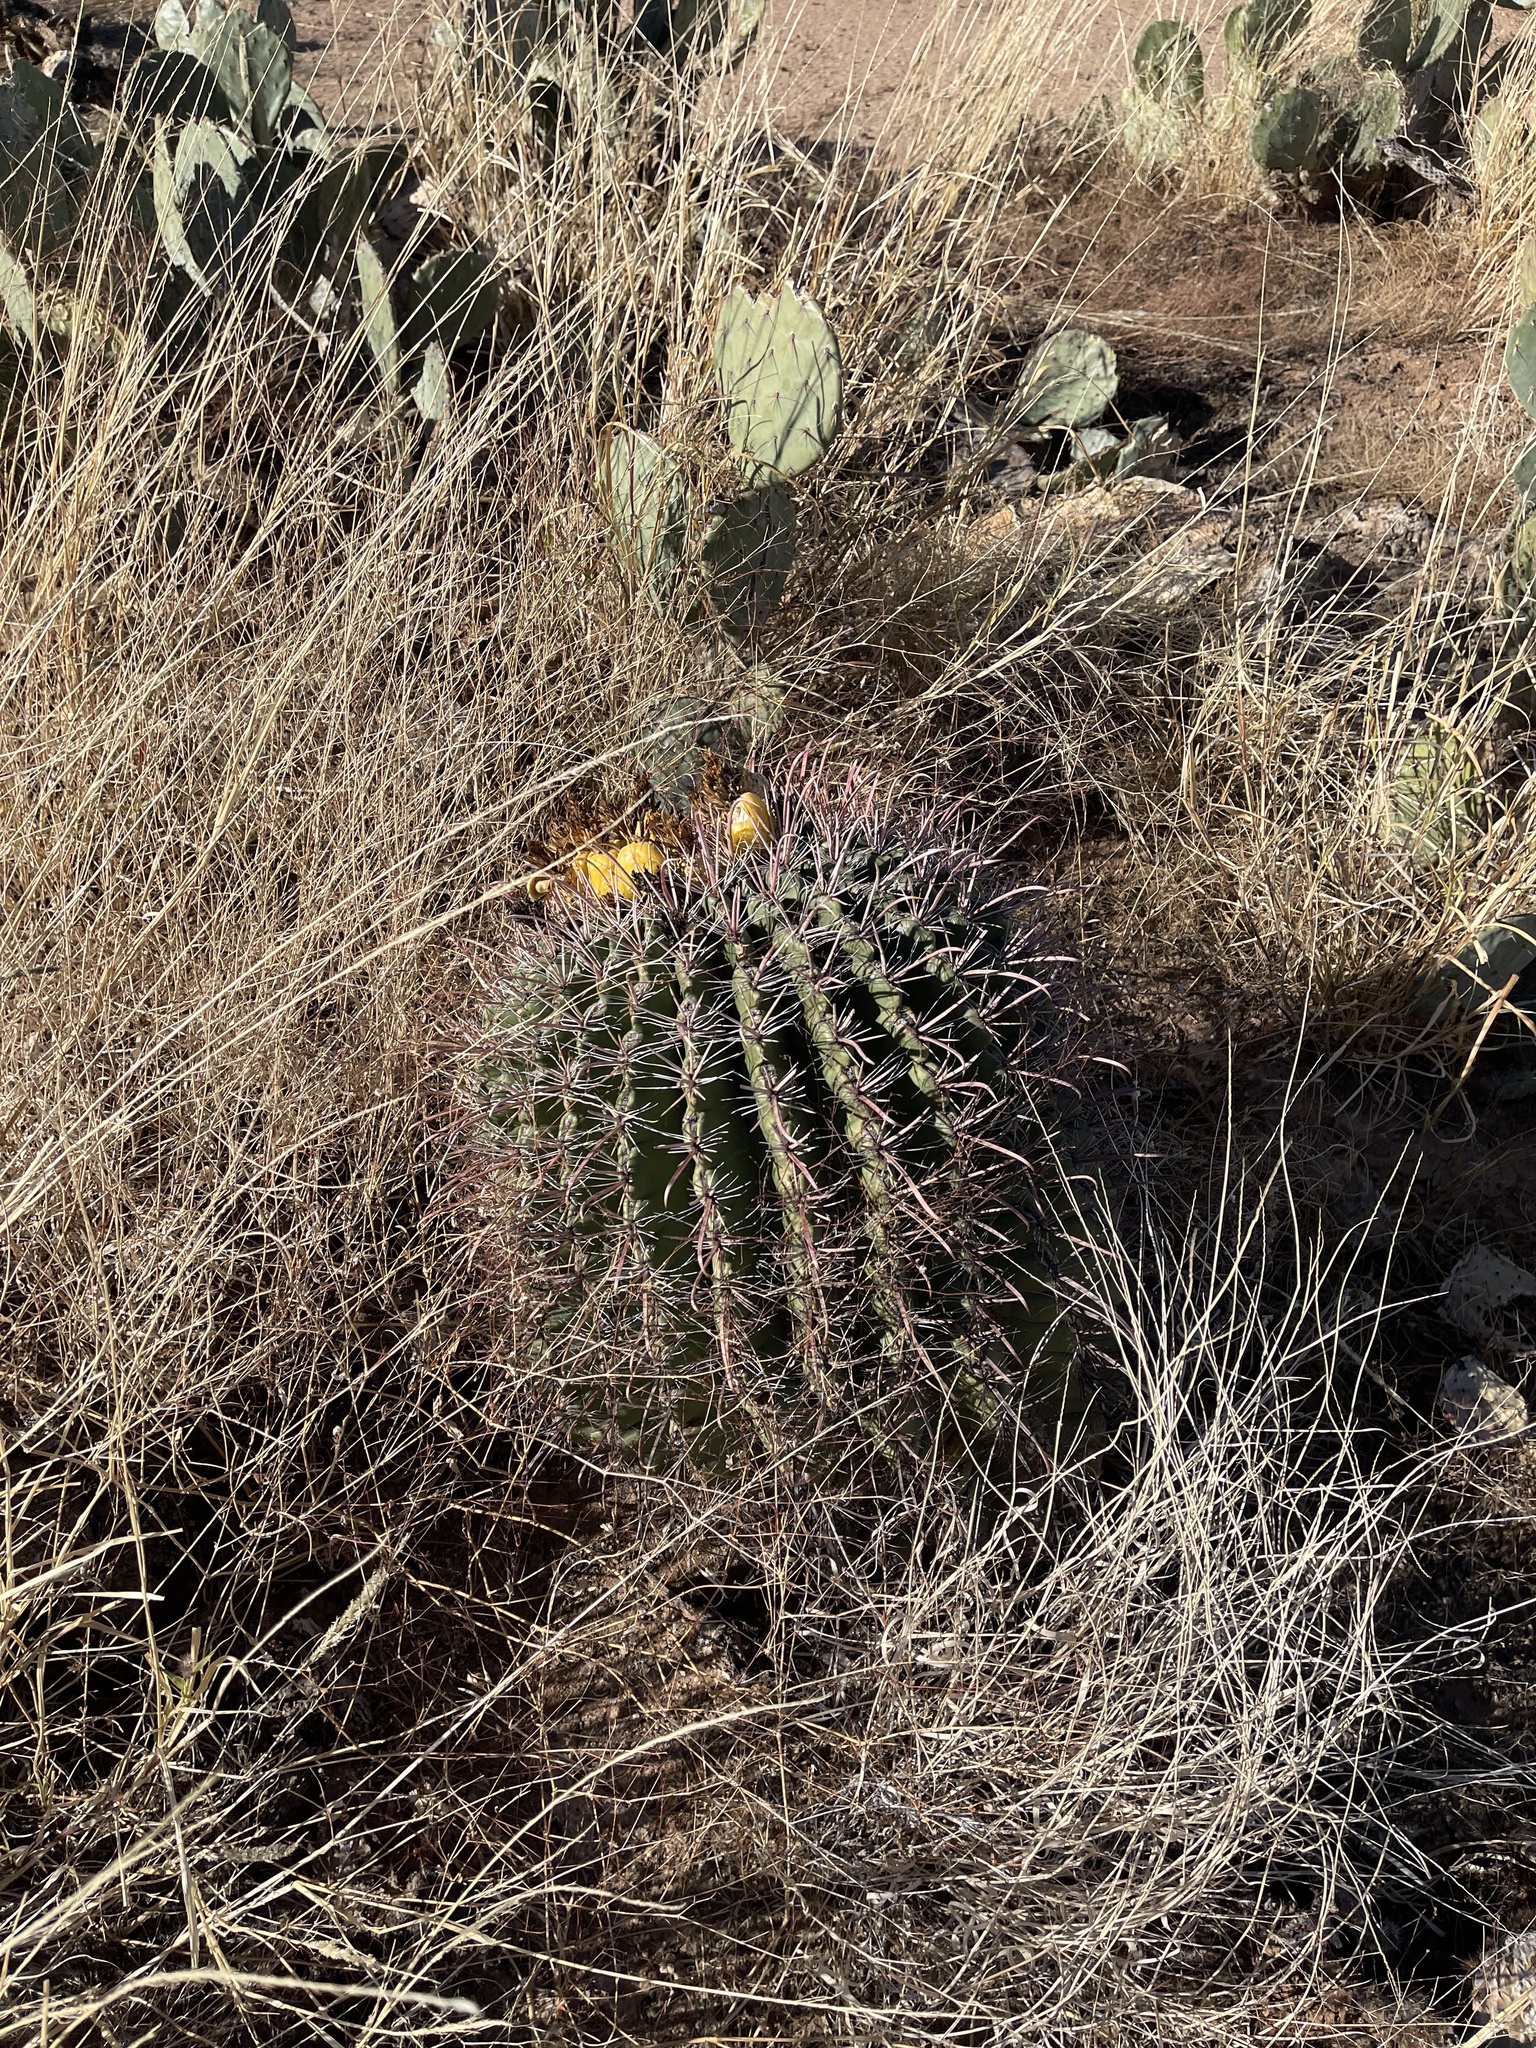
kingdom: Plantae
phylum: Tracheophyta
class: Magnoliopsida
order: Caryophyllales
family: Cactaceae
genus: Ferocactus
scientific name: Ferocactus wislizeni
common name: Candy barrel cactus
